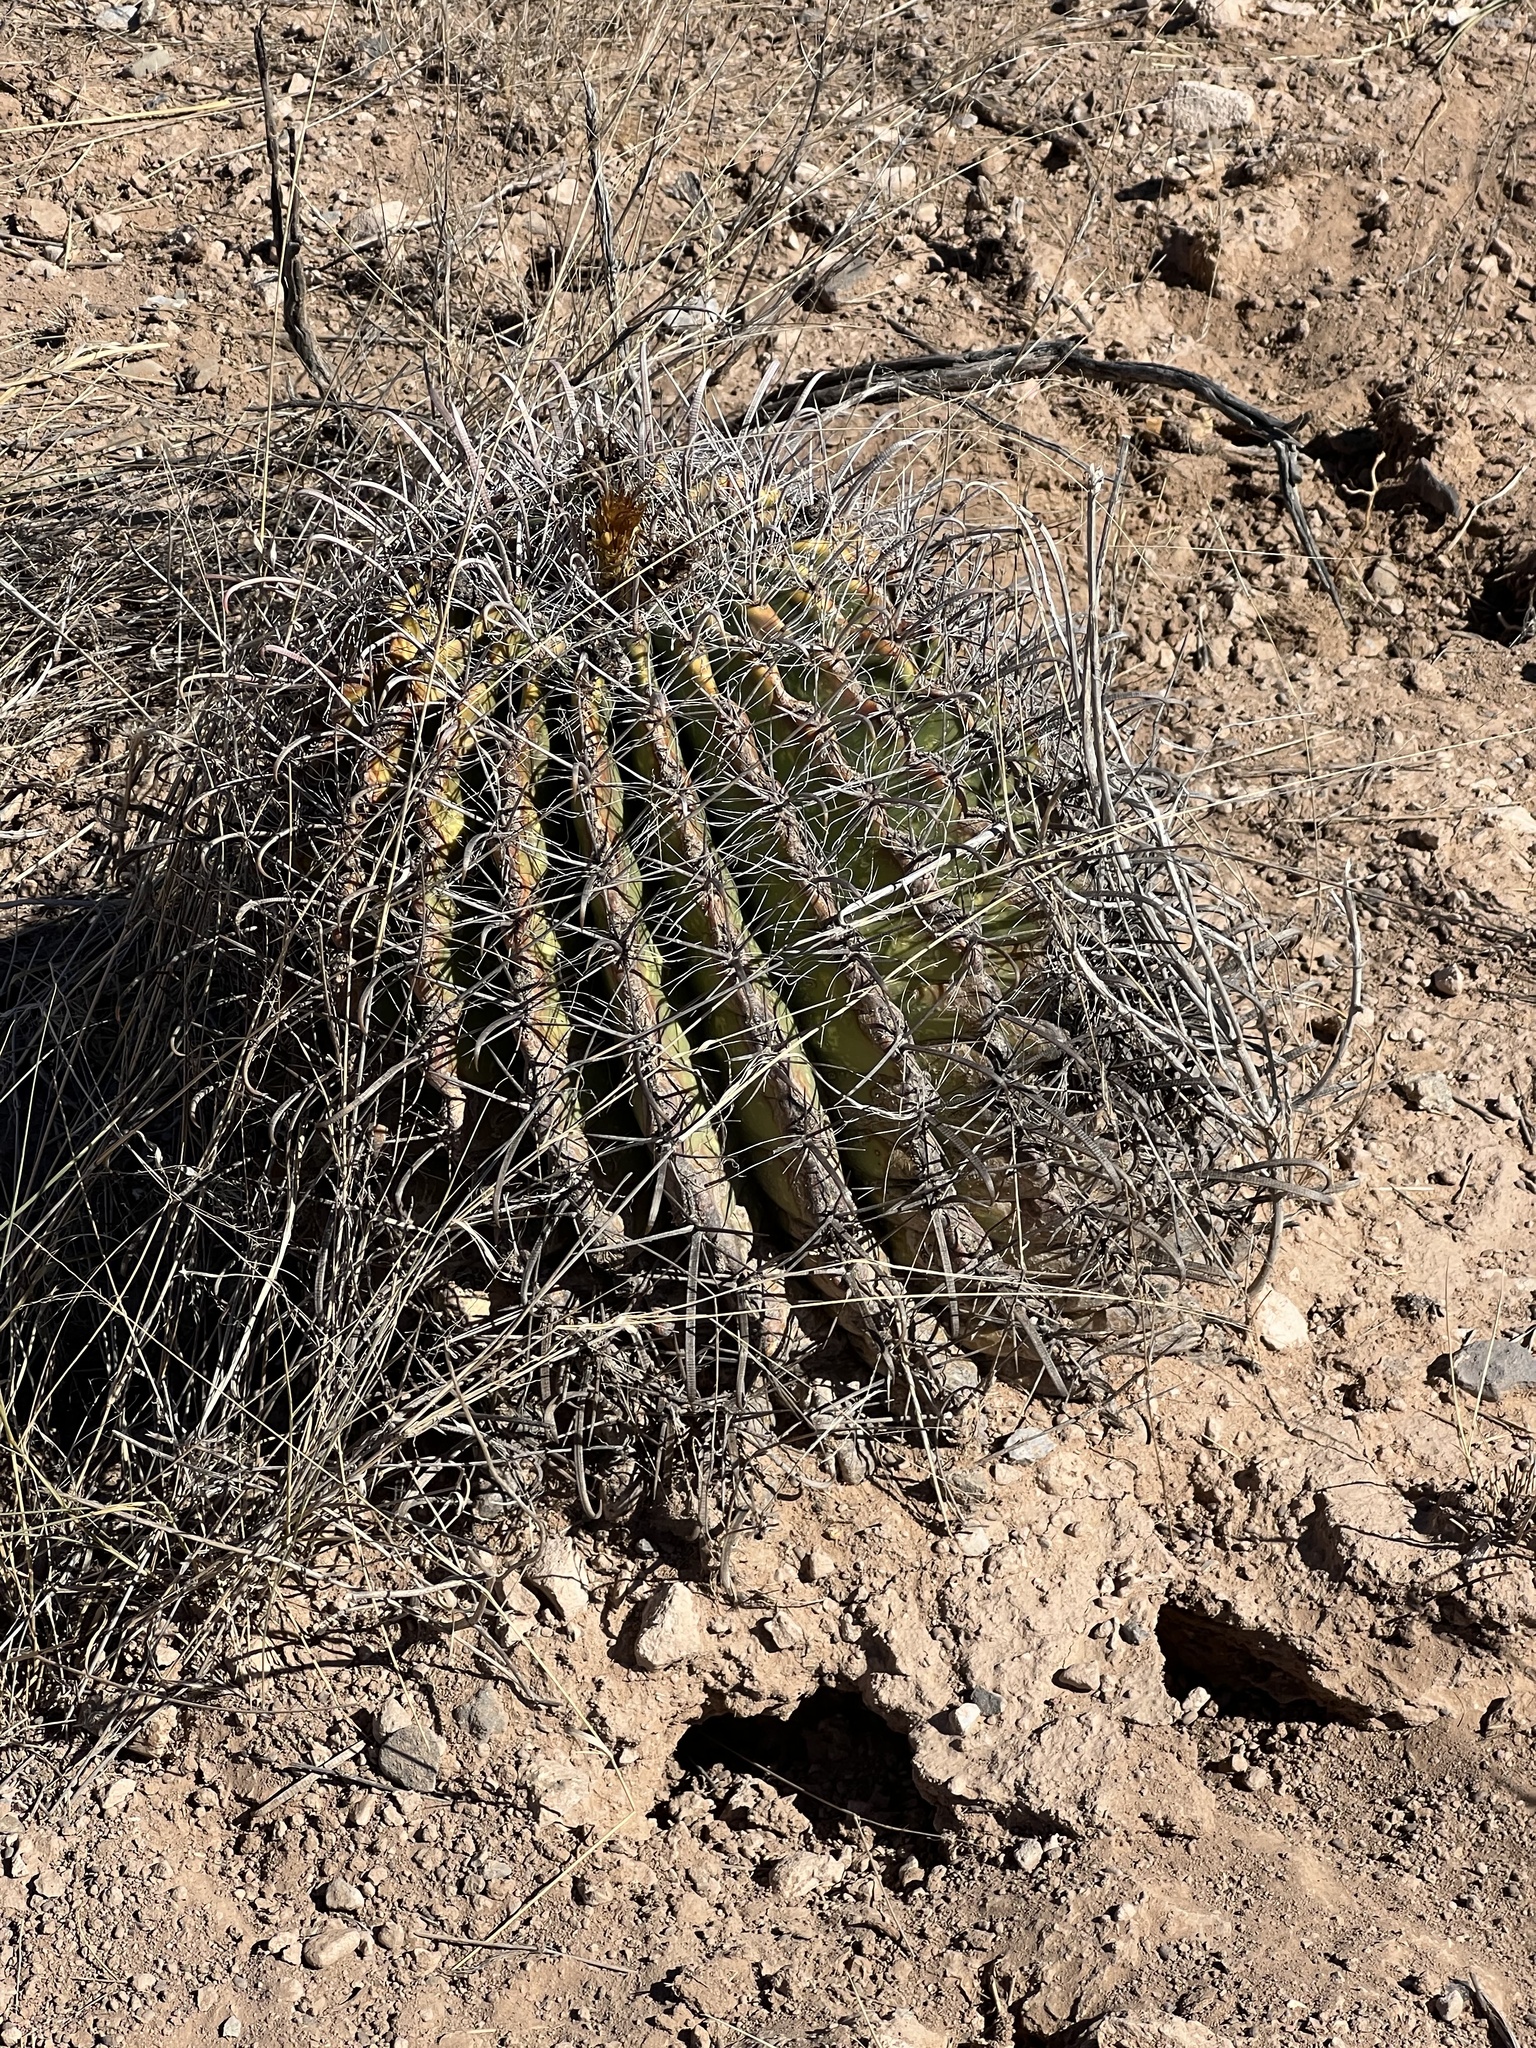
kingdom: Plantae
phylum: Tracheophyta
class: Magnoliopsida
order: Caryophyllales
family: Cactaceae
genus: Ferocactus
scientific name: Ferocactus wislizeni
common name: Candy barrel cactus
